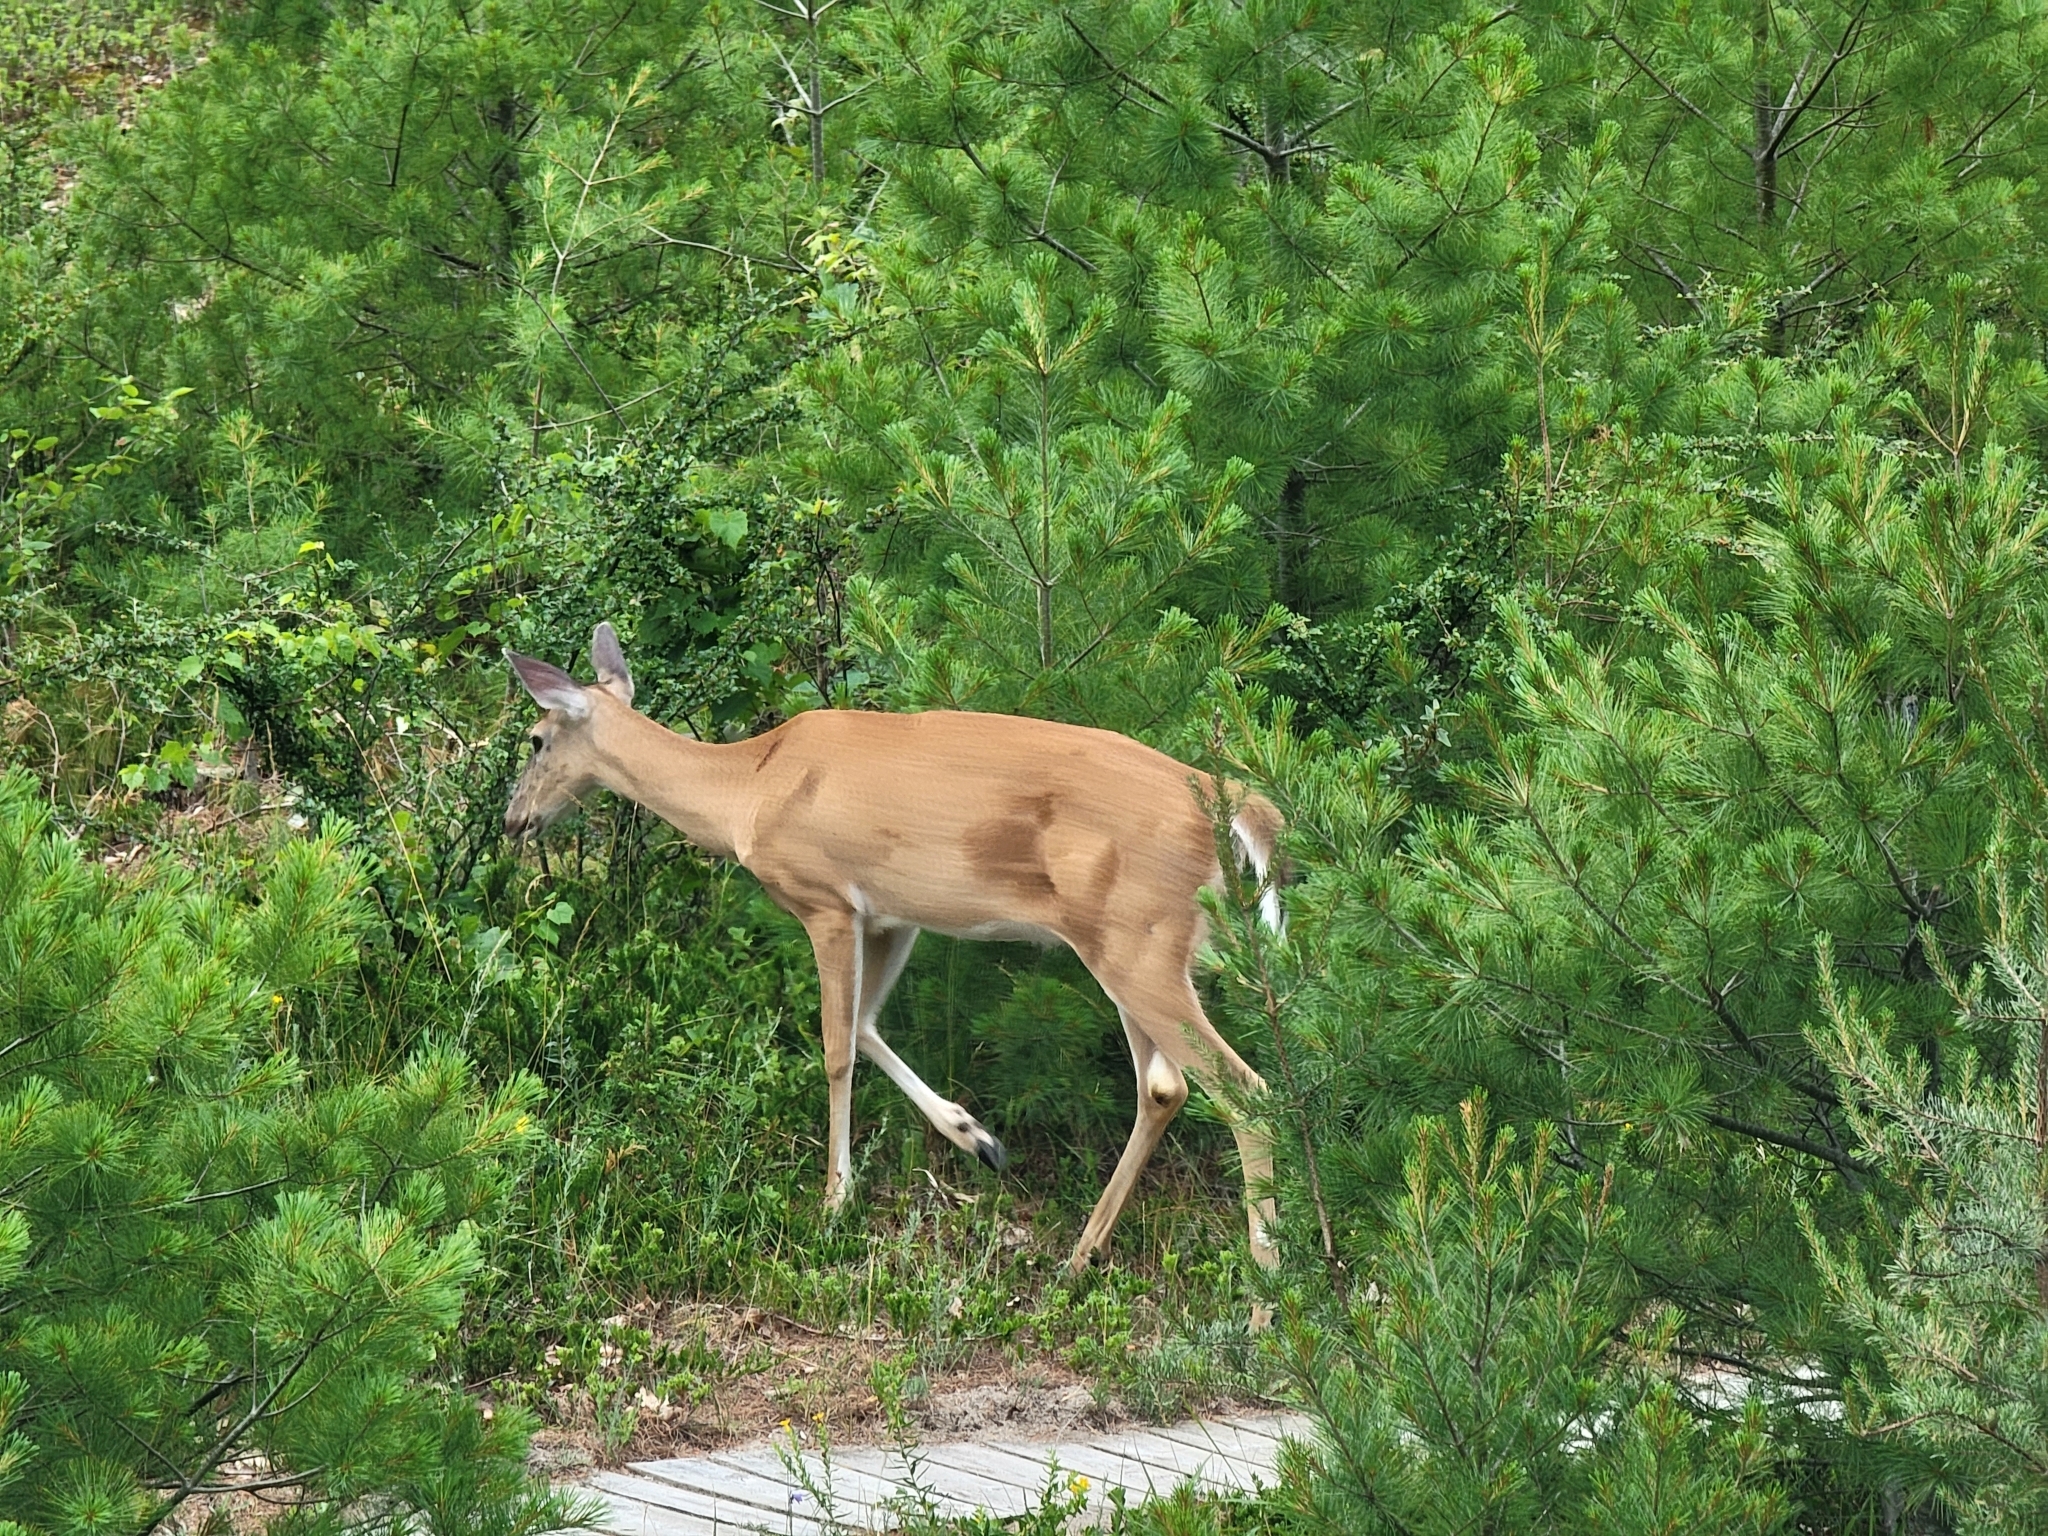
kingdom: Animalia
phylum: Chordata
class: Mammalia
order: Artiodactyla
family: Cervidae
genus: Odocoileus
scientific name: Odocoileus virginianus
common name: White-tailed deer
